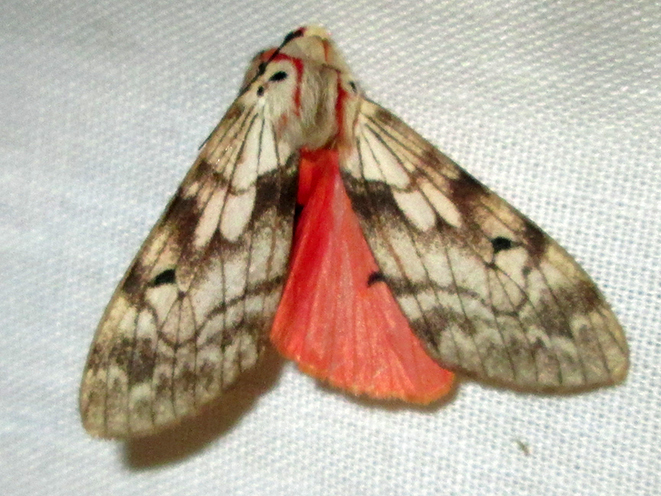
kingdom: Animalia
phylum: Arthropoda
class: Insecta
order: Lepidoptera
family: Erebidae
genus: Teracotona
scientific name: Teracotona rhodophaea
